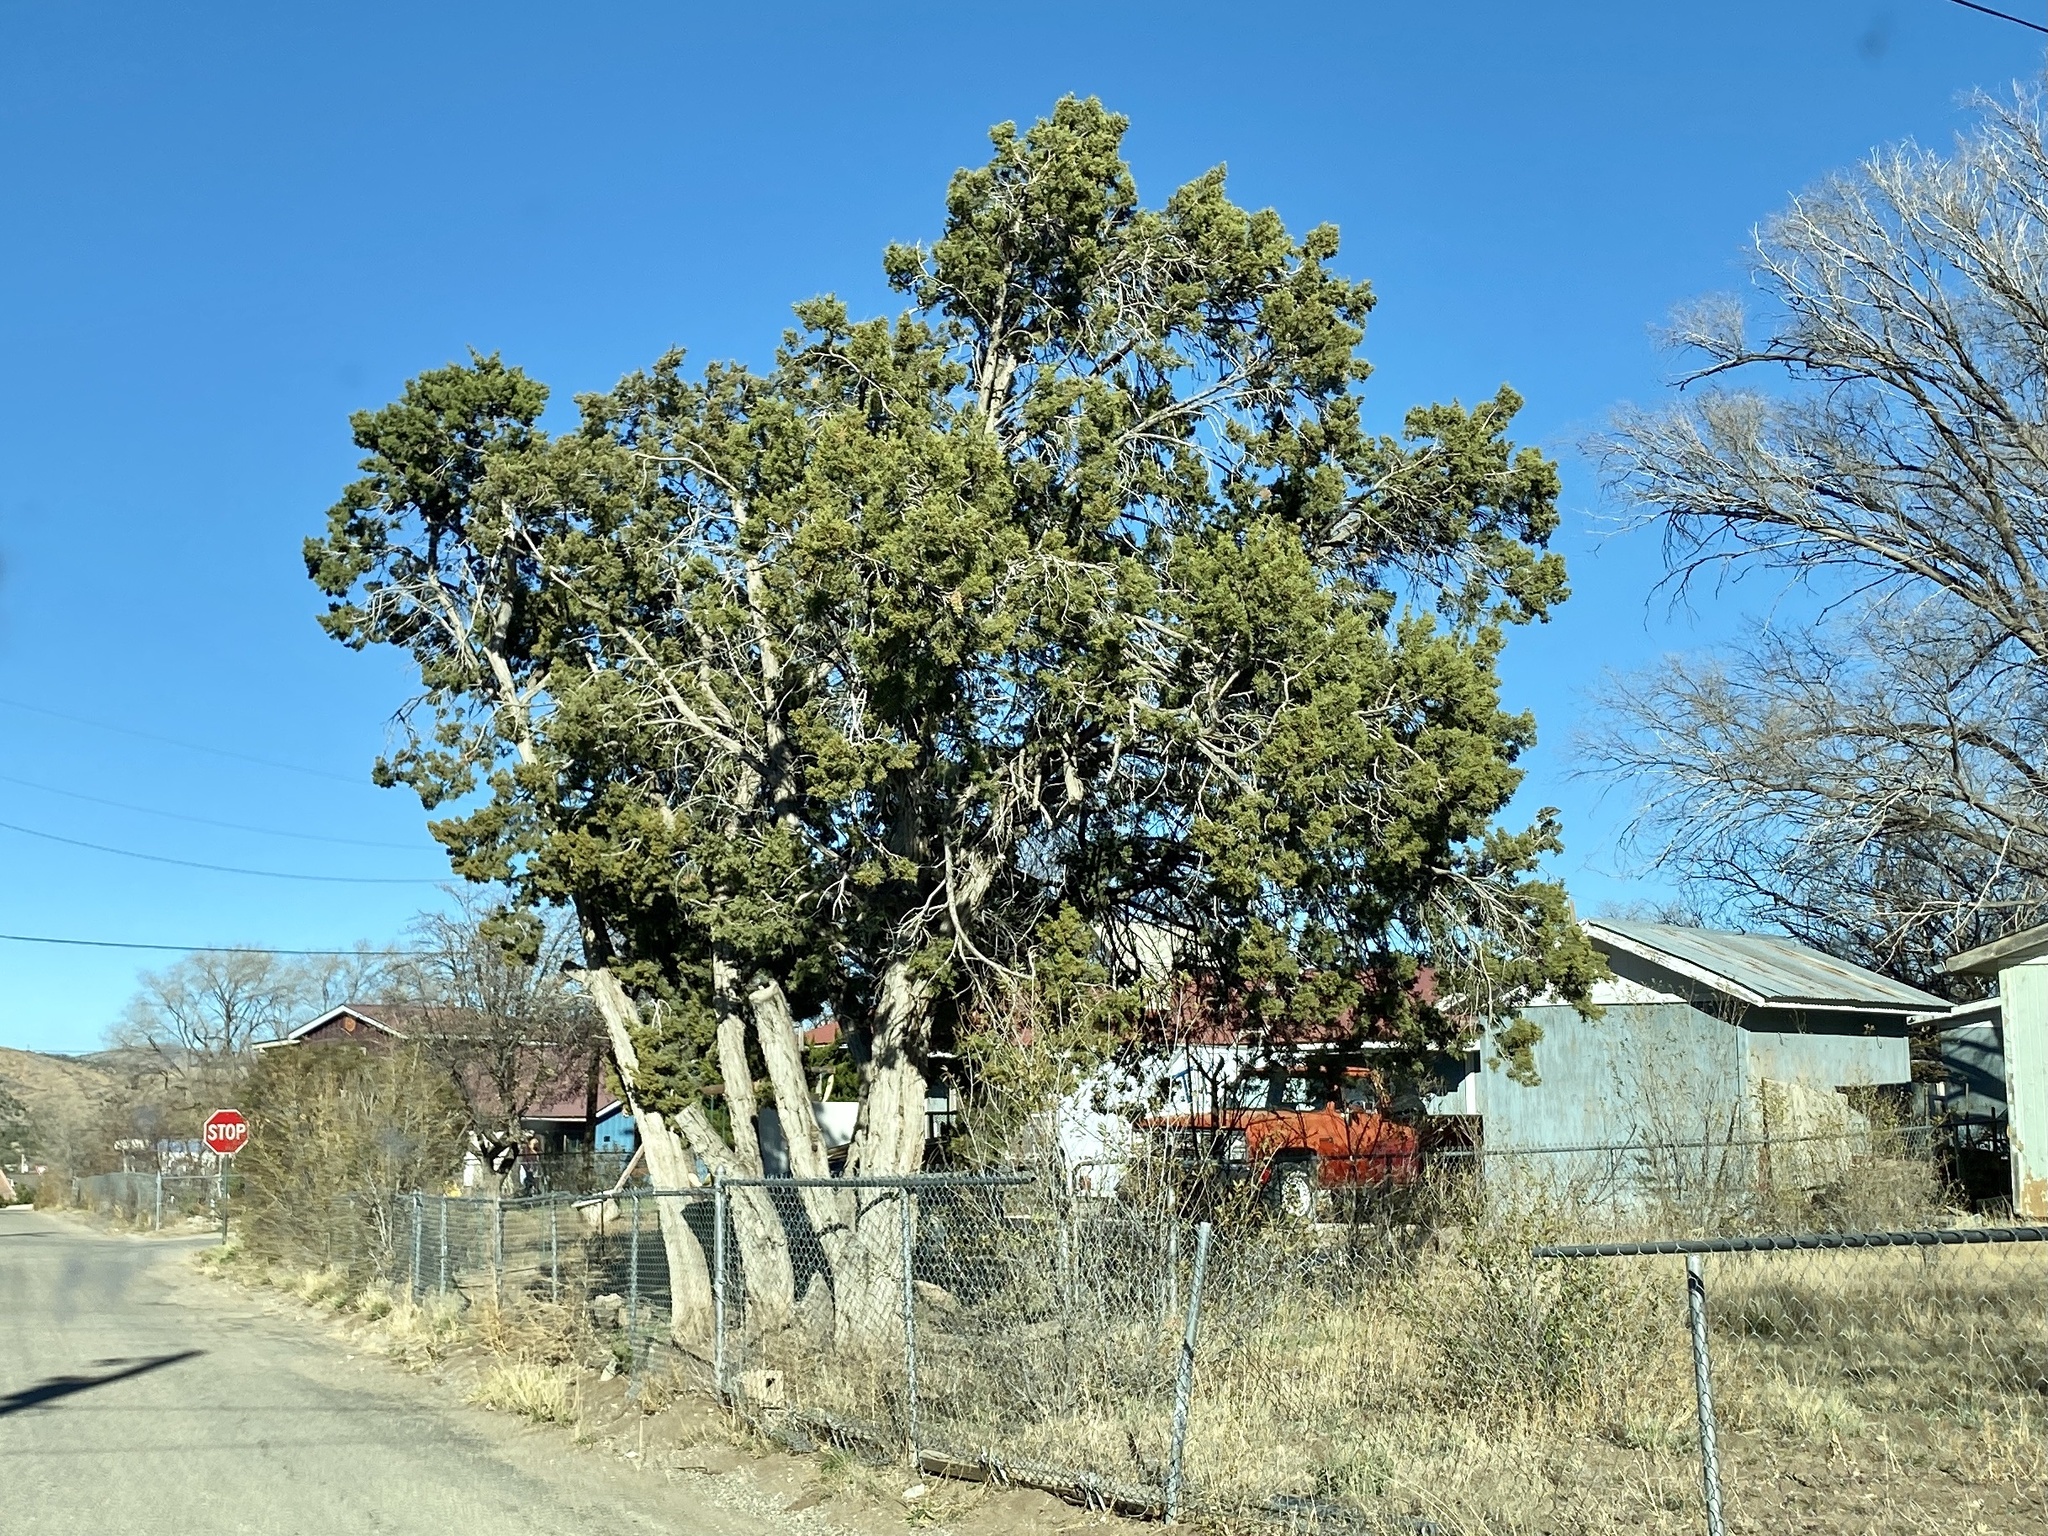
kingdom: Plantae
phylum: Tracheophyta
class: Pinopsida
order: Pinales
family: Cupressaceae
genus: Juniperus
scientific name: Juniperus monosperma
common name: One-seed juniper
